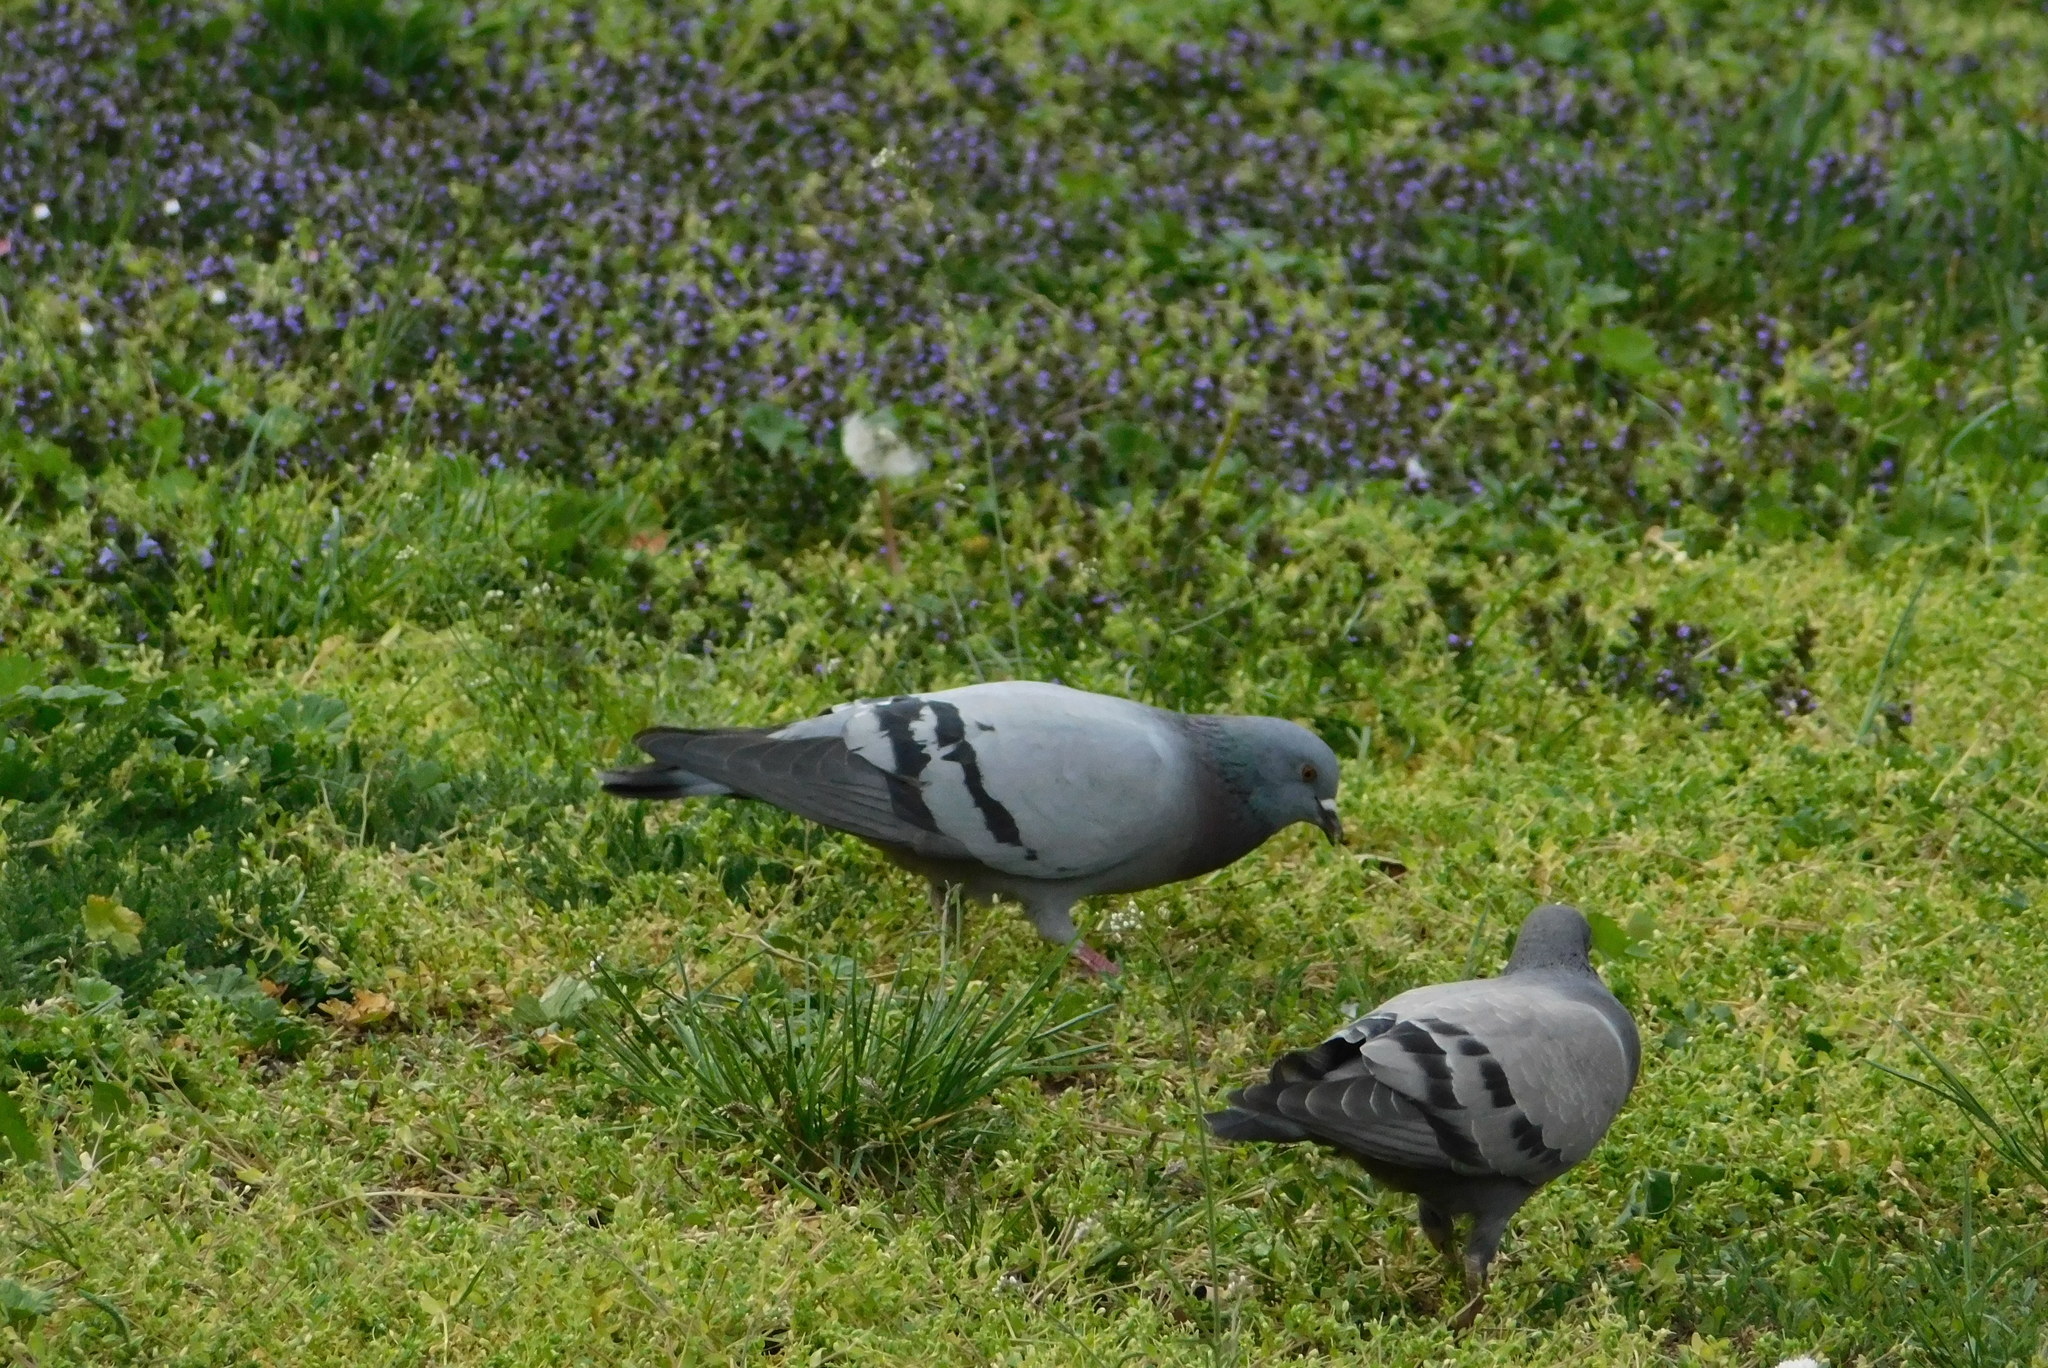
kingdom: Animalia
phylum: Chordata
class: Aves
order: Columbiformes
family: Columbidae
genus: Columba
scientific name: Columba livia
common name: Rock pigeon
